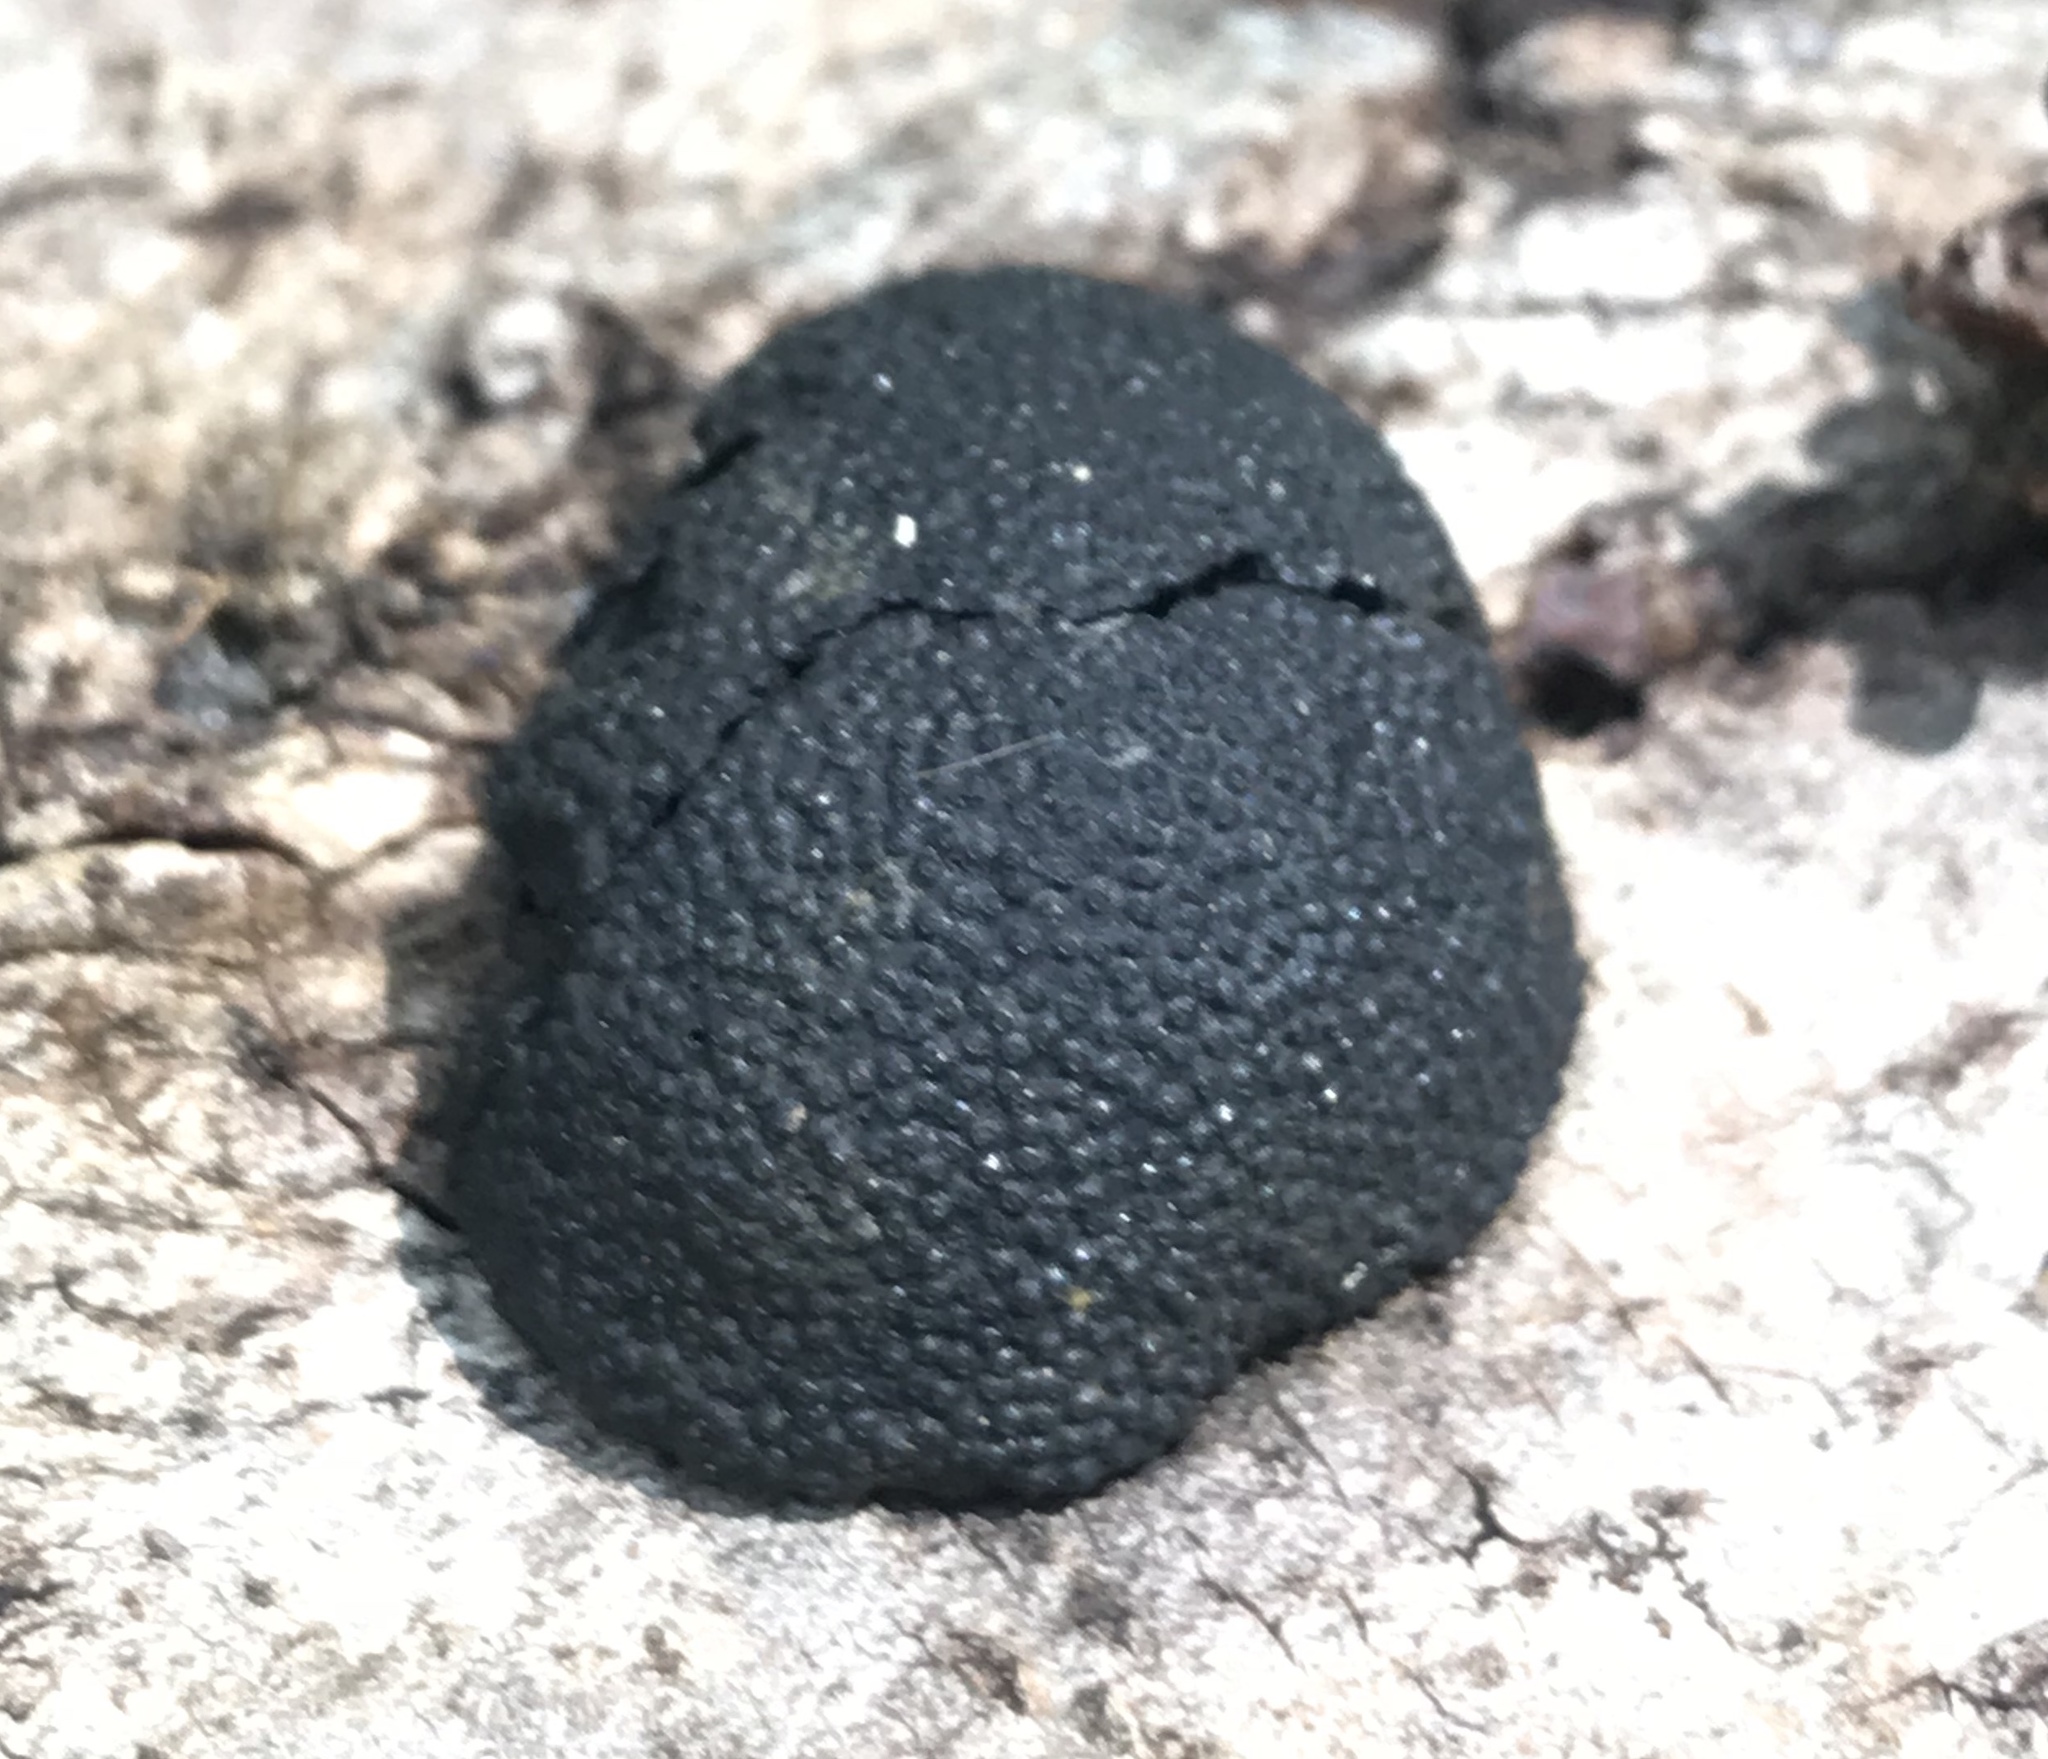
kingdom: Fungi
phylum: Ascomycota
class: Sordariomycetes
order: Xylariales
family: Hypoxylaceae
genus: Annulohypoxylon
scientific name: Annulohypoxylon thouarsianum
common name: Cramp balls
